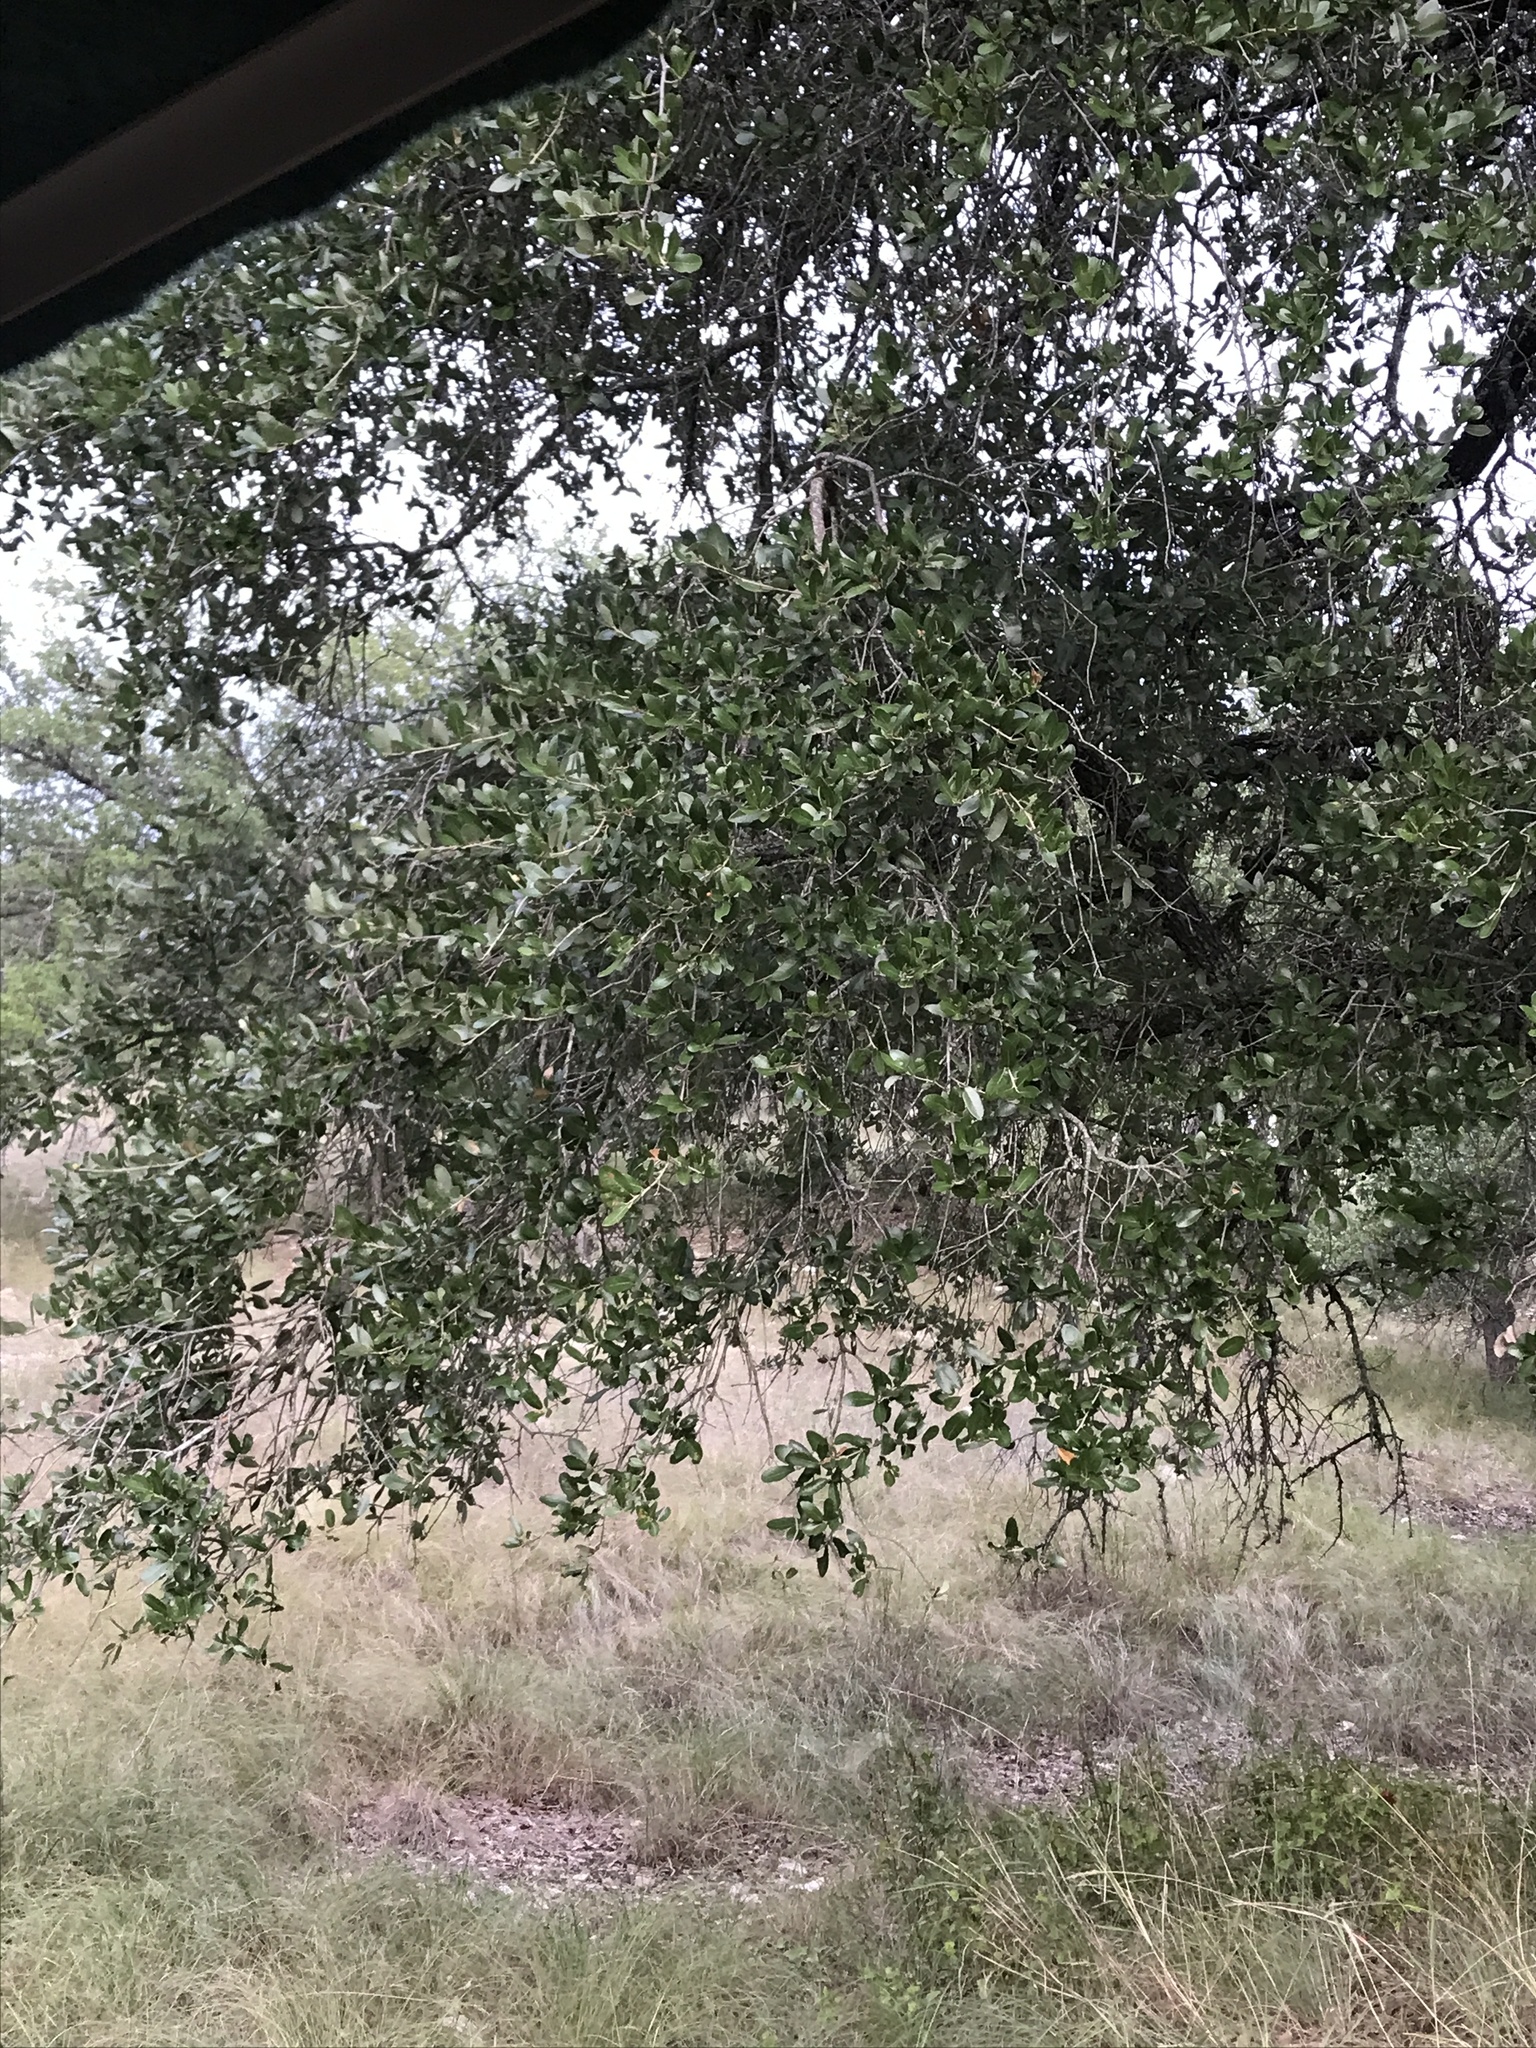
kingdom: Plantae
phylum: Tracheophyta
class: Magnoliopsida
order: Fagales
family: Fagaceae
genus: Quercus
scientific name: Quercus fusiformis
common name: Texas live oak
